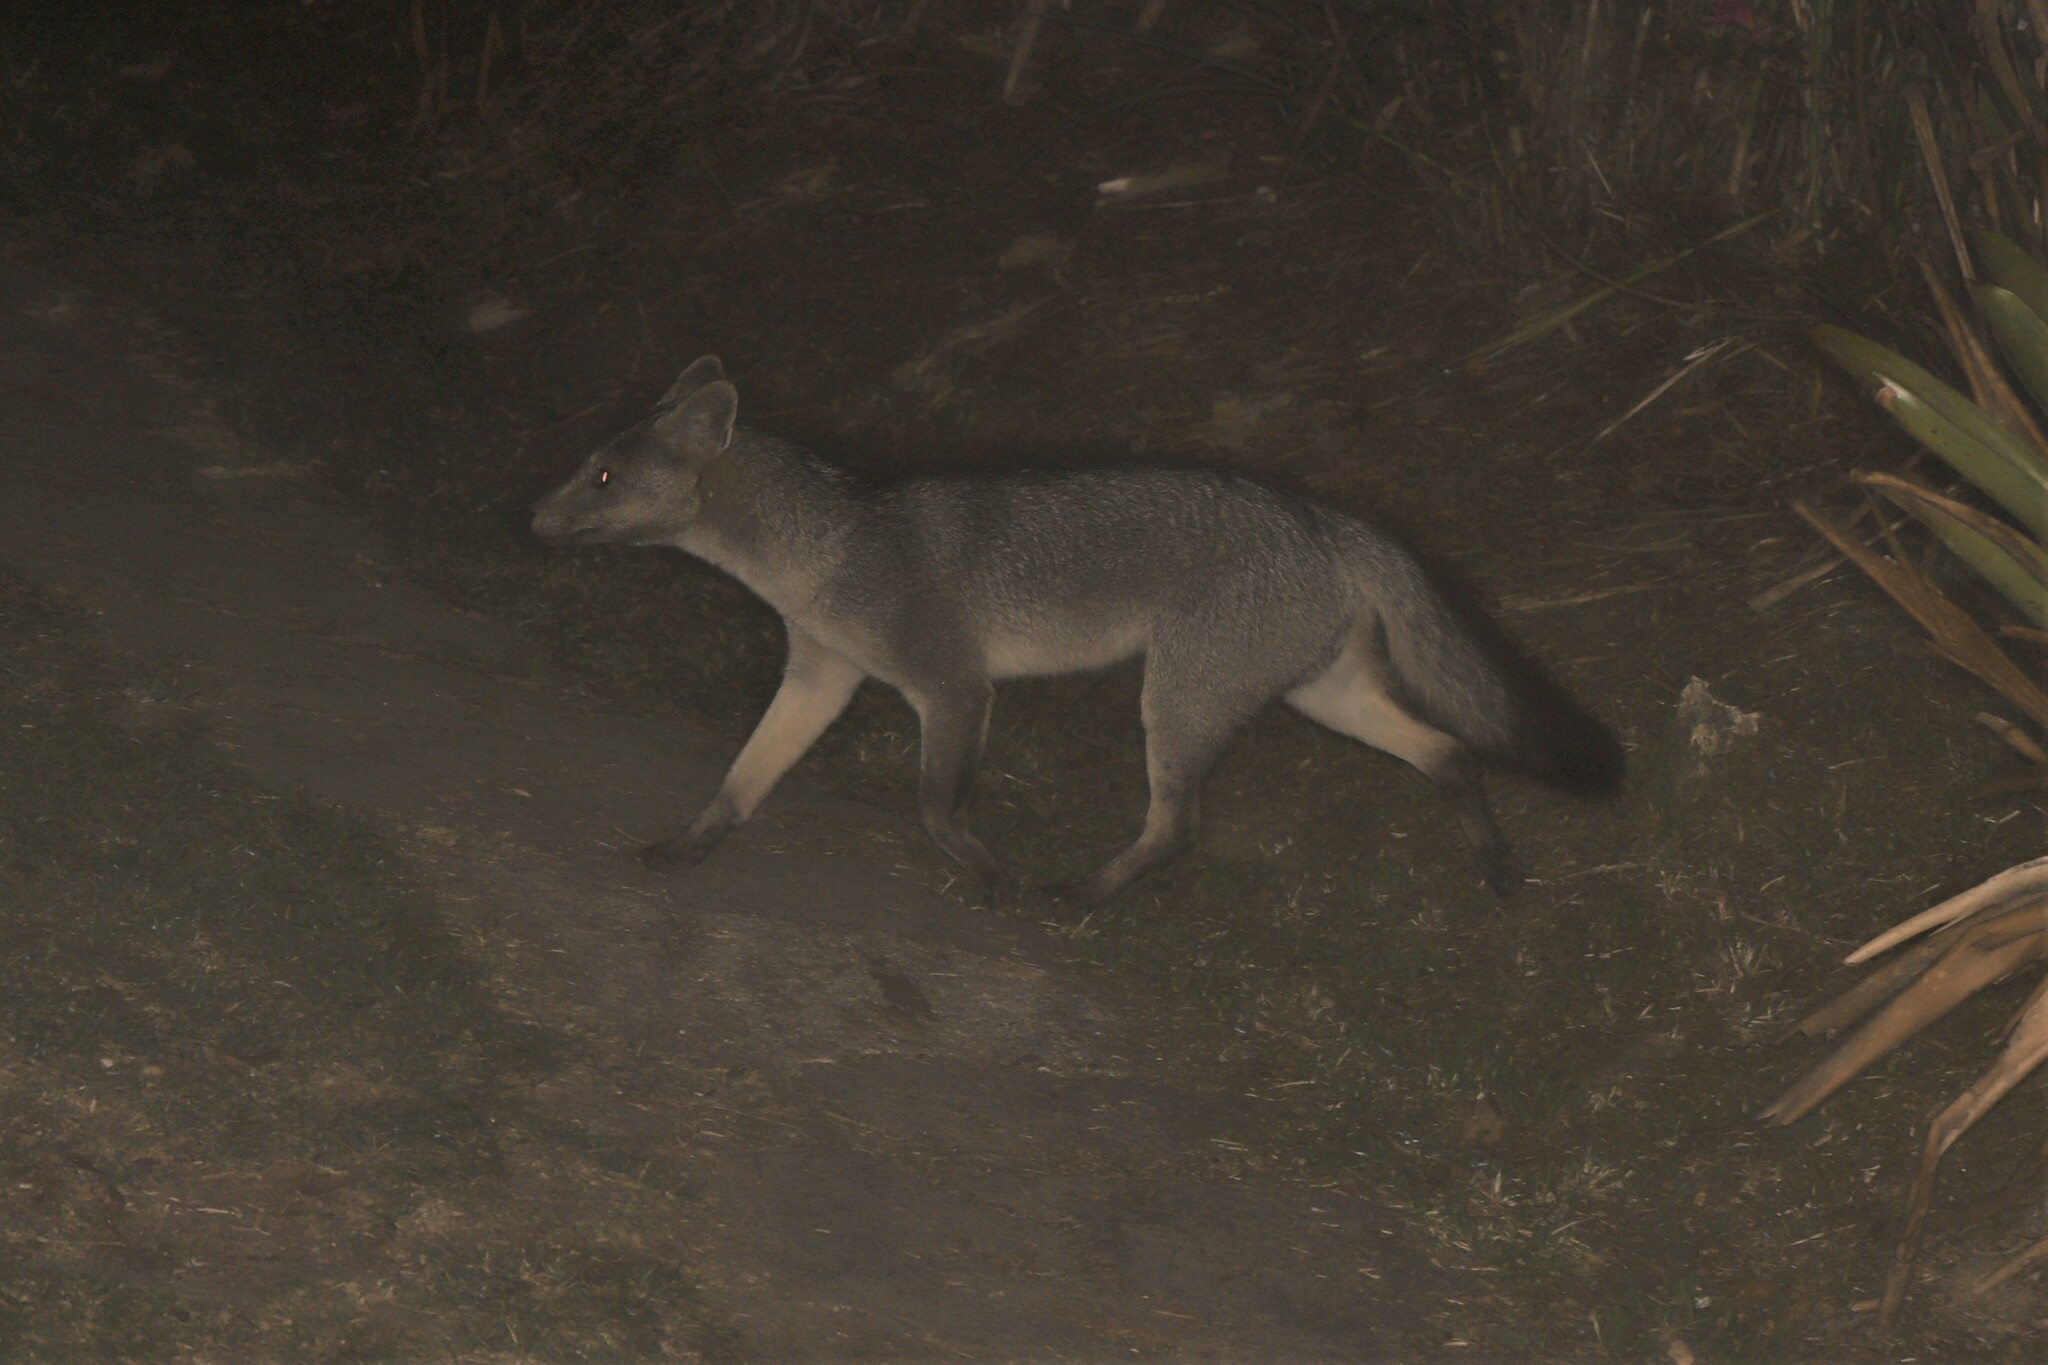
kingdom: Animalia
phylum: Chordata
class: Mammalia
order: Carnivora
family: Canidae
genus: Cerdocyon
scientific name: Cerdocyon thous
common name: Crab-eating fox
